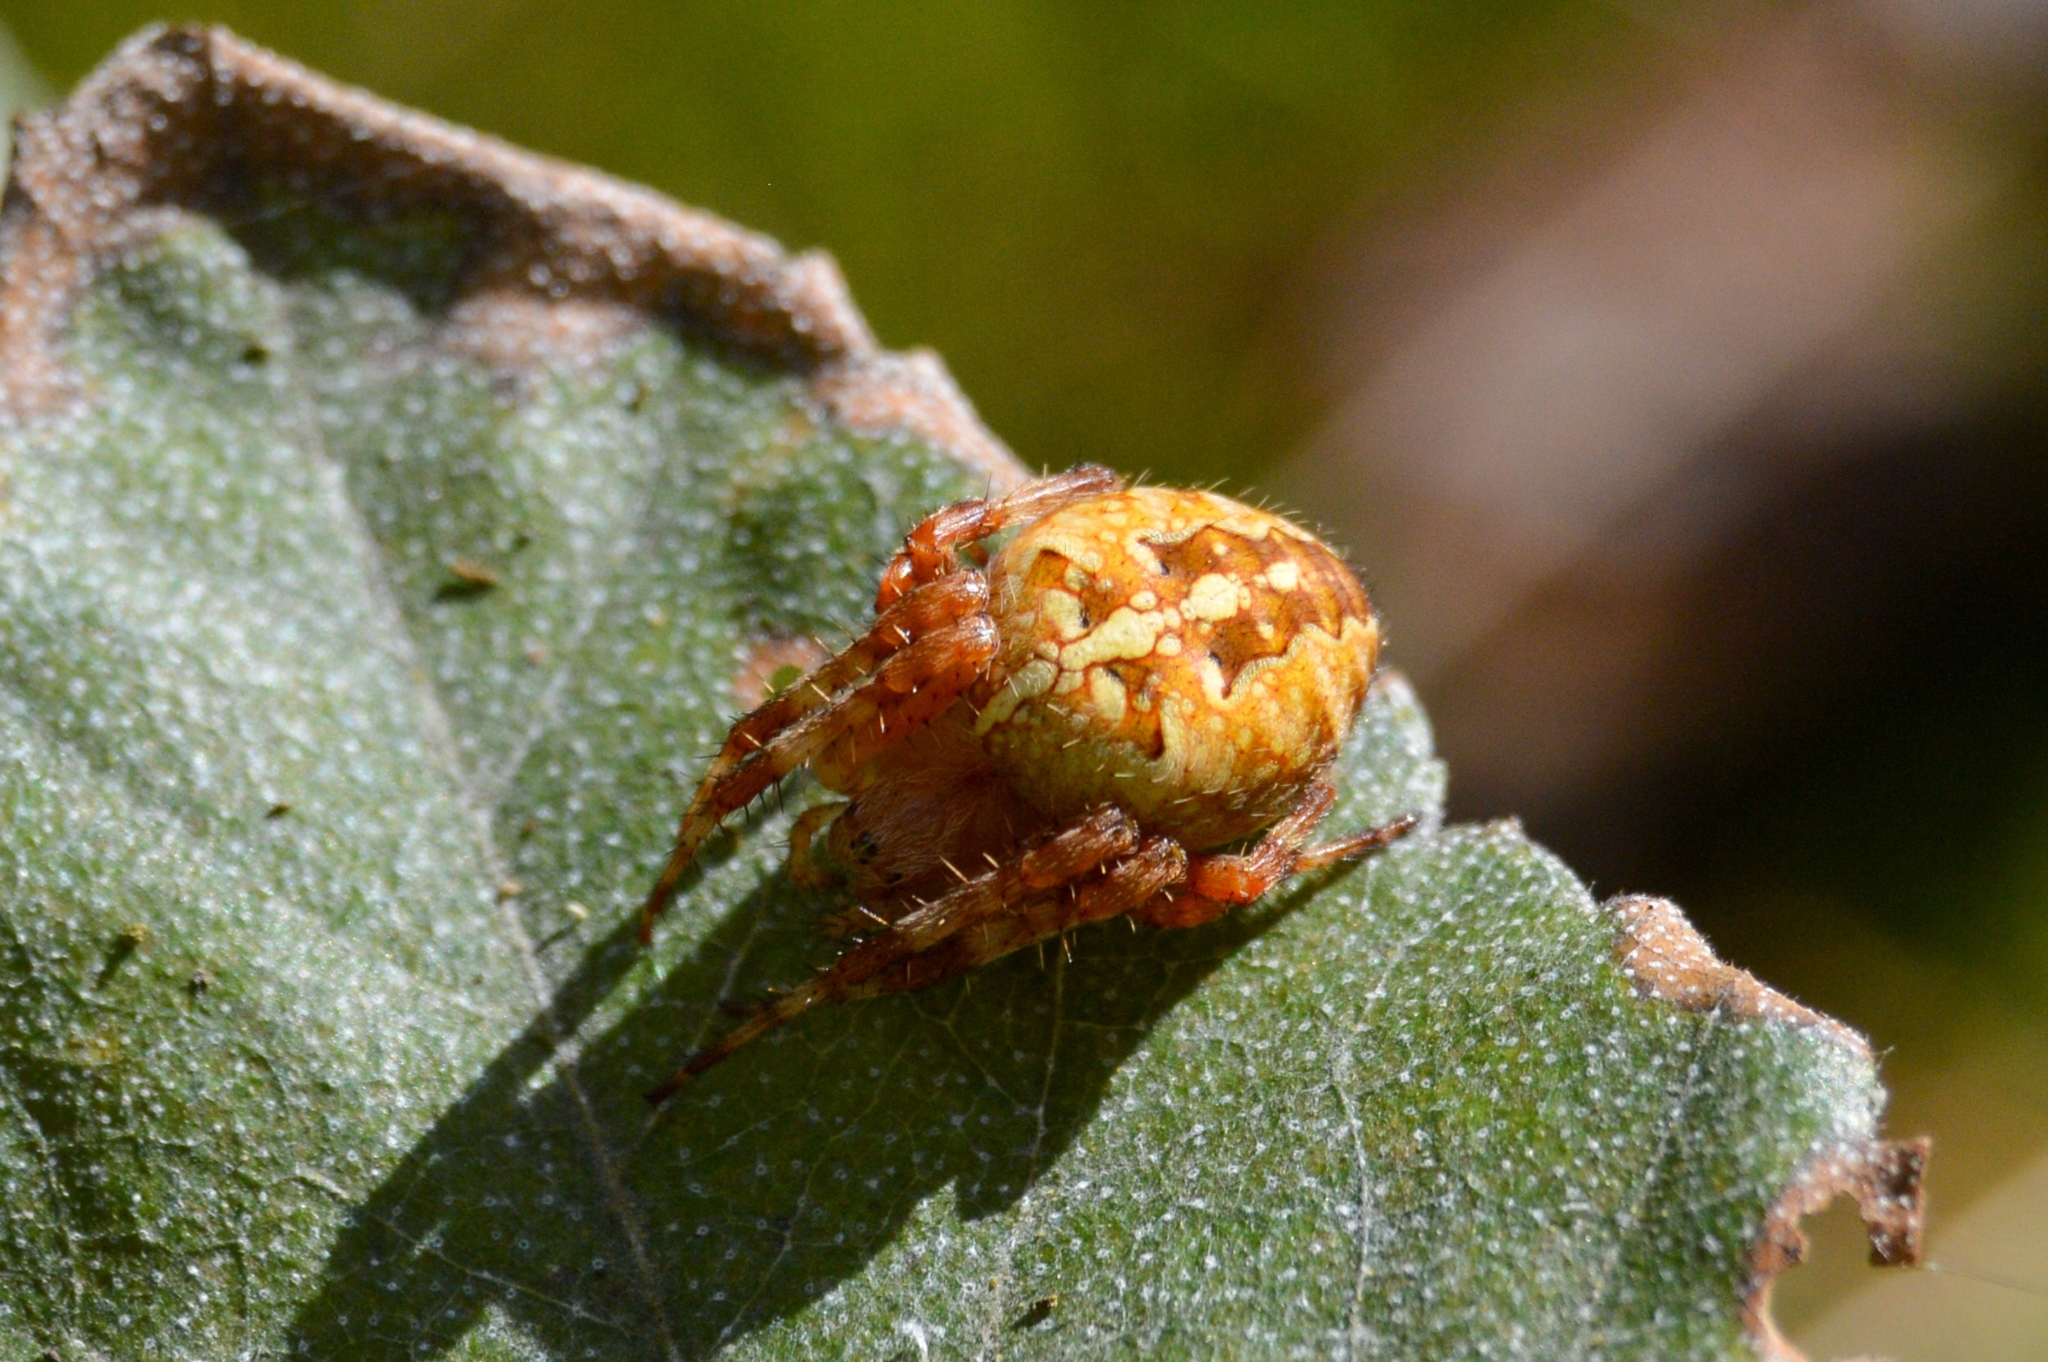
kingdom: Animalia
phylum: Arthropoda
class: Arachnida
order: Araneae
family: Araneidae
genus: Araneus
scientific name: Araneus diadematus
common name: Cross orbweaver
